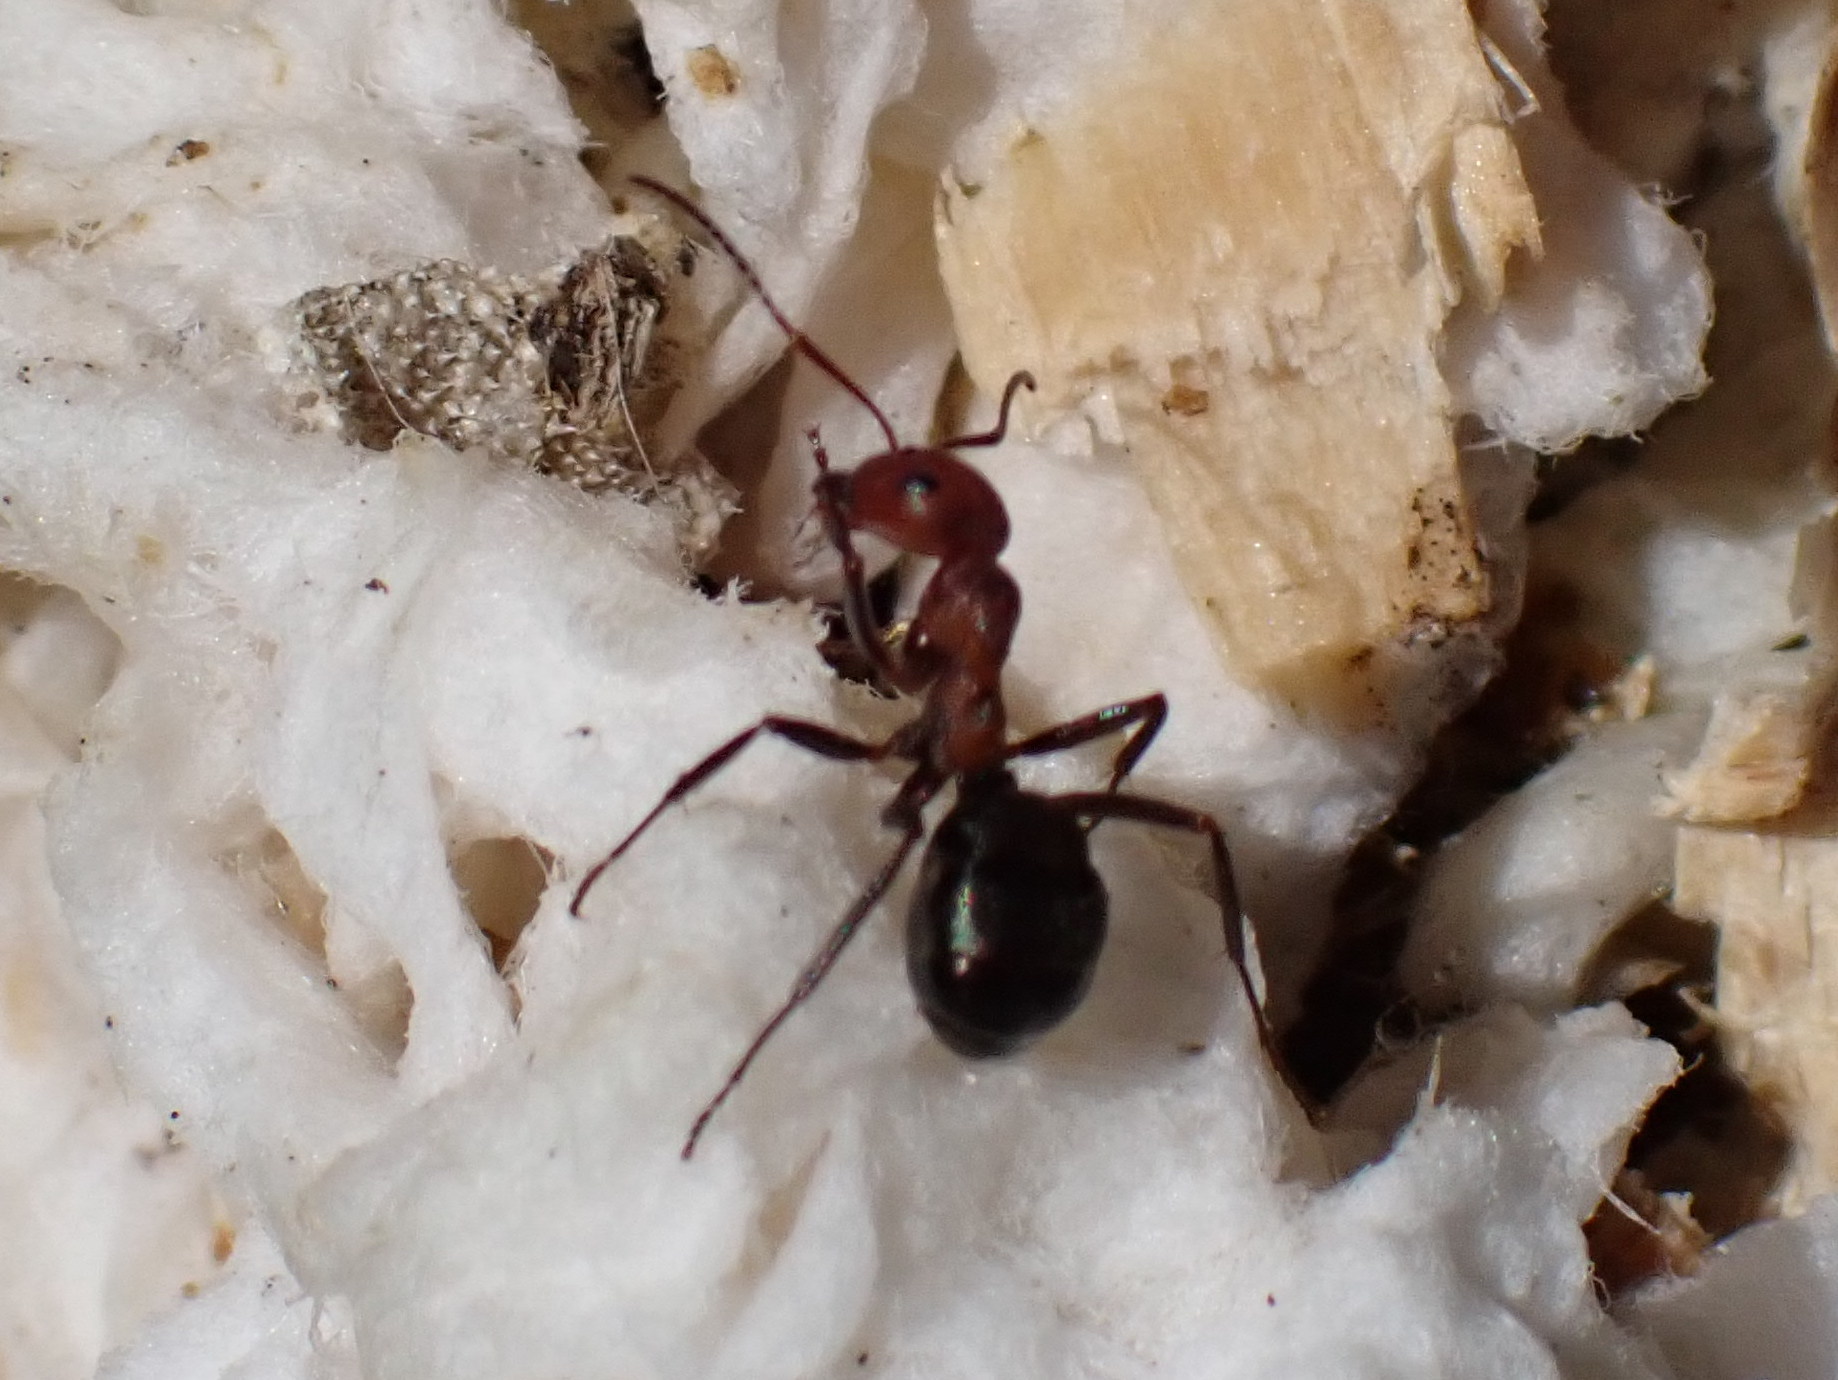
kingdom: Animalia
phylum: Arthropoda
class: Insecta
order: Hymenoptera
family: Formicidae
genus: Formica
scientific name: Formica exsectoides
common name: Allegheny mound ant
